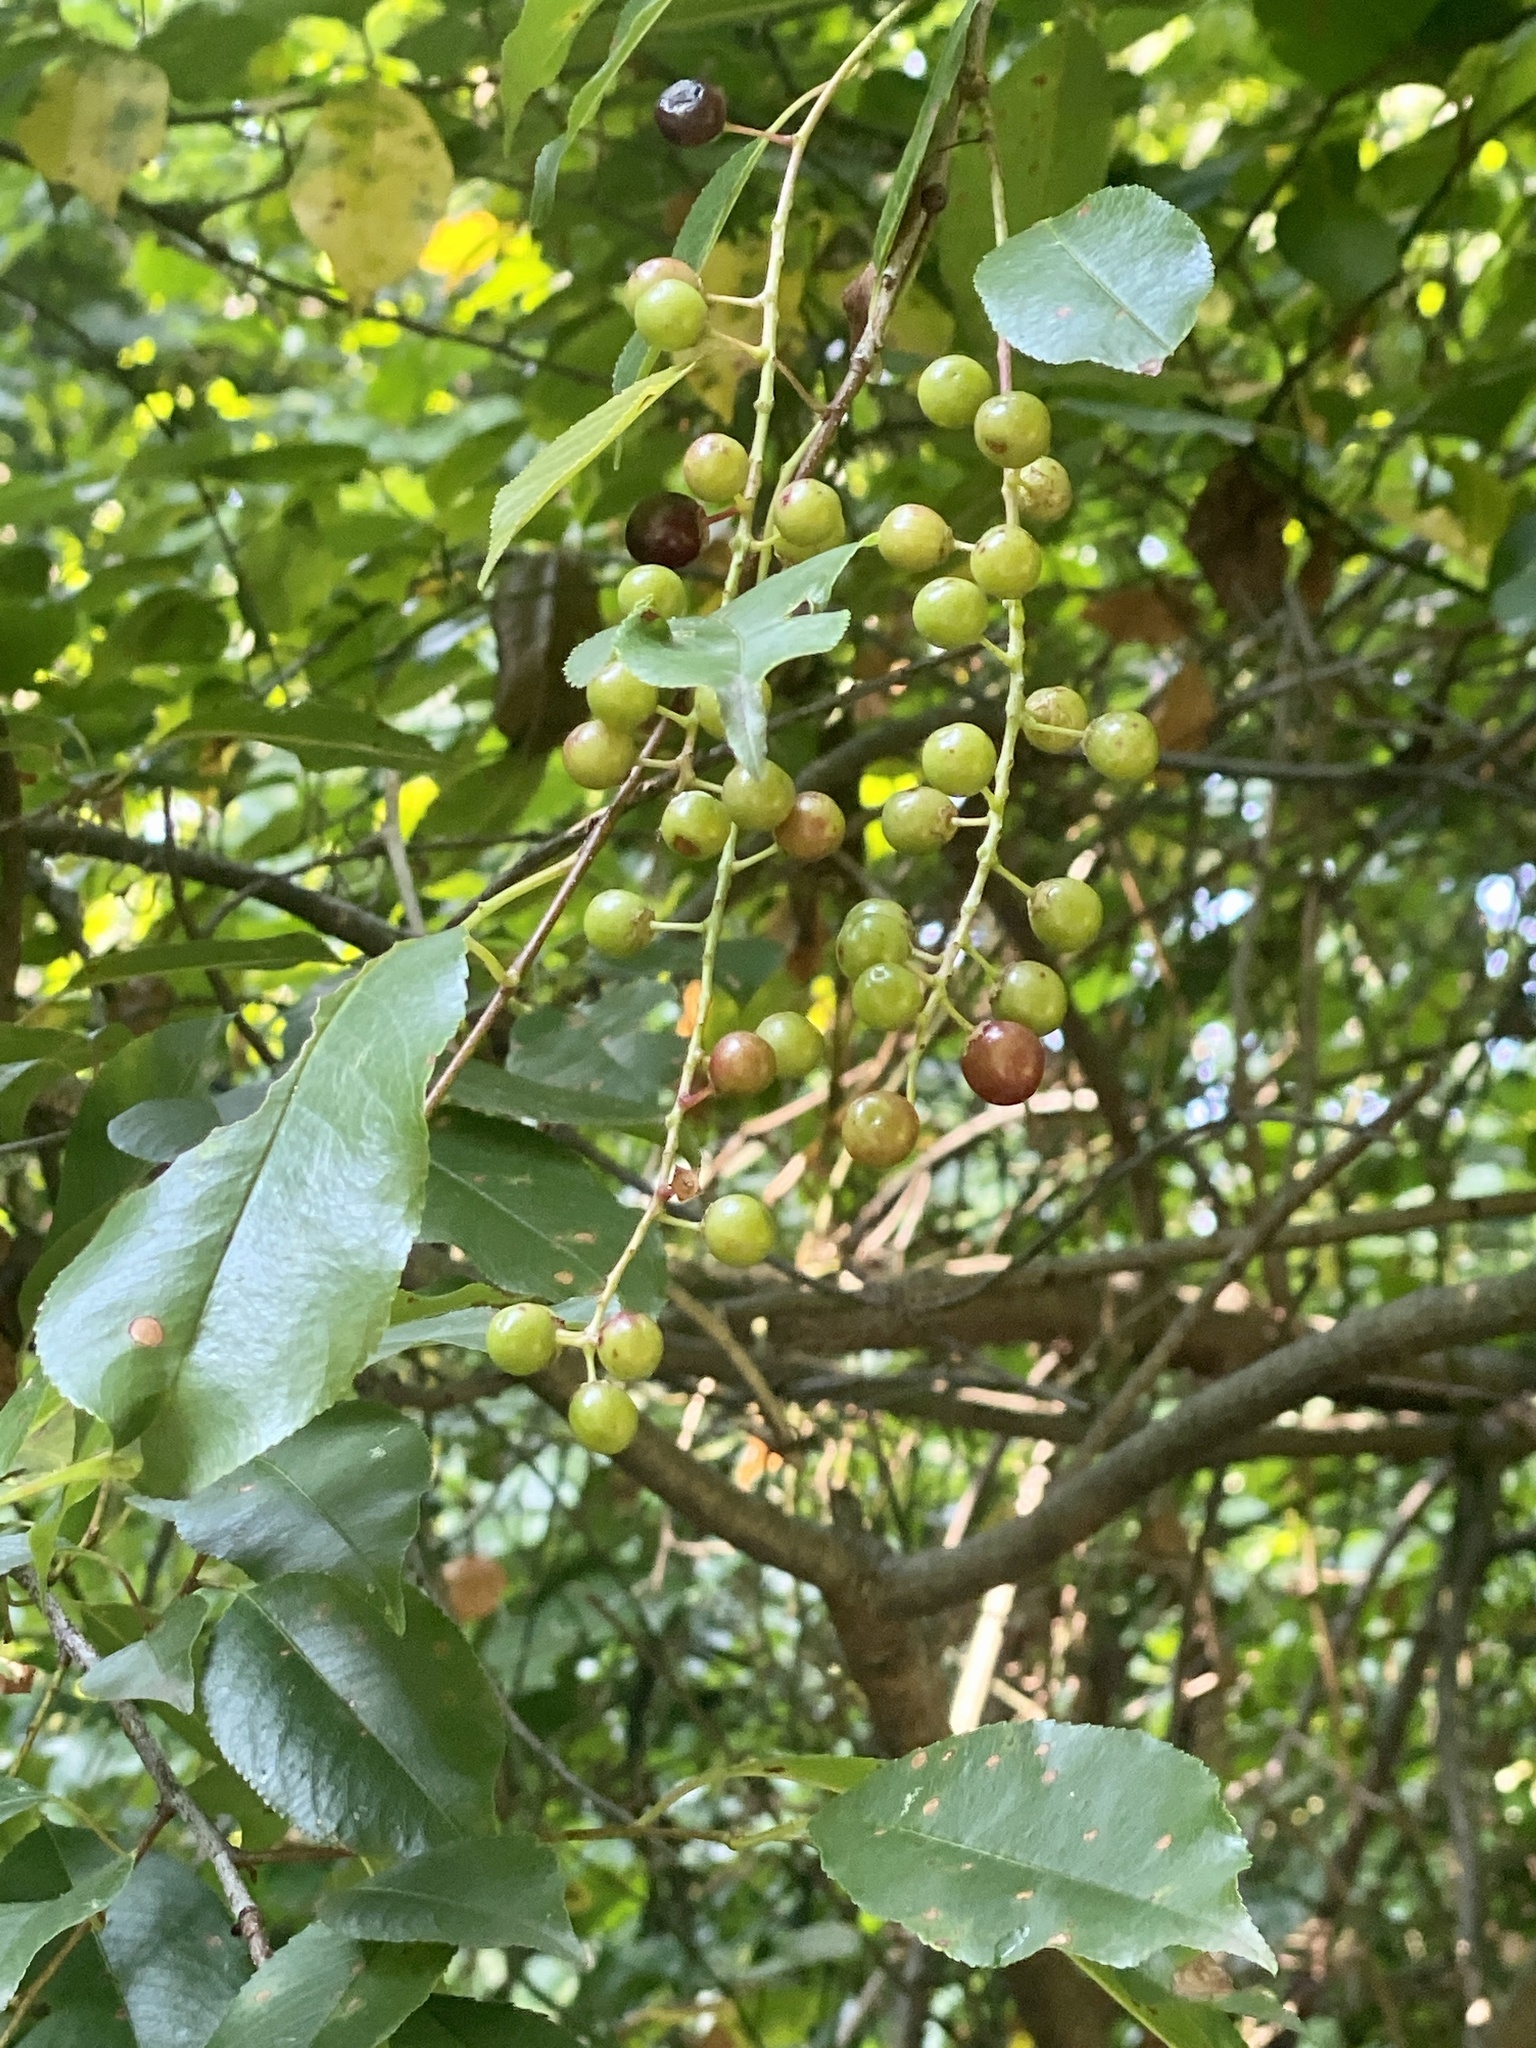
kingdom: Plantae
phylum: Tracheophyta
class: Magnoliopsida
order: Rosales
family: Rosaceae
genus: Prunus
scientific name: Prunus serotina
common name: Black cherry
